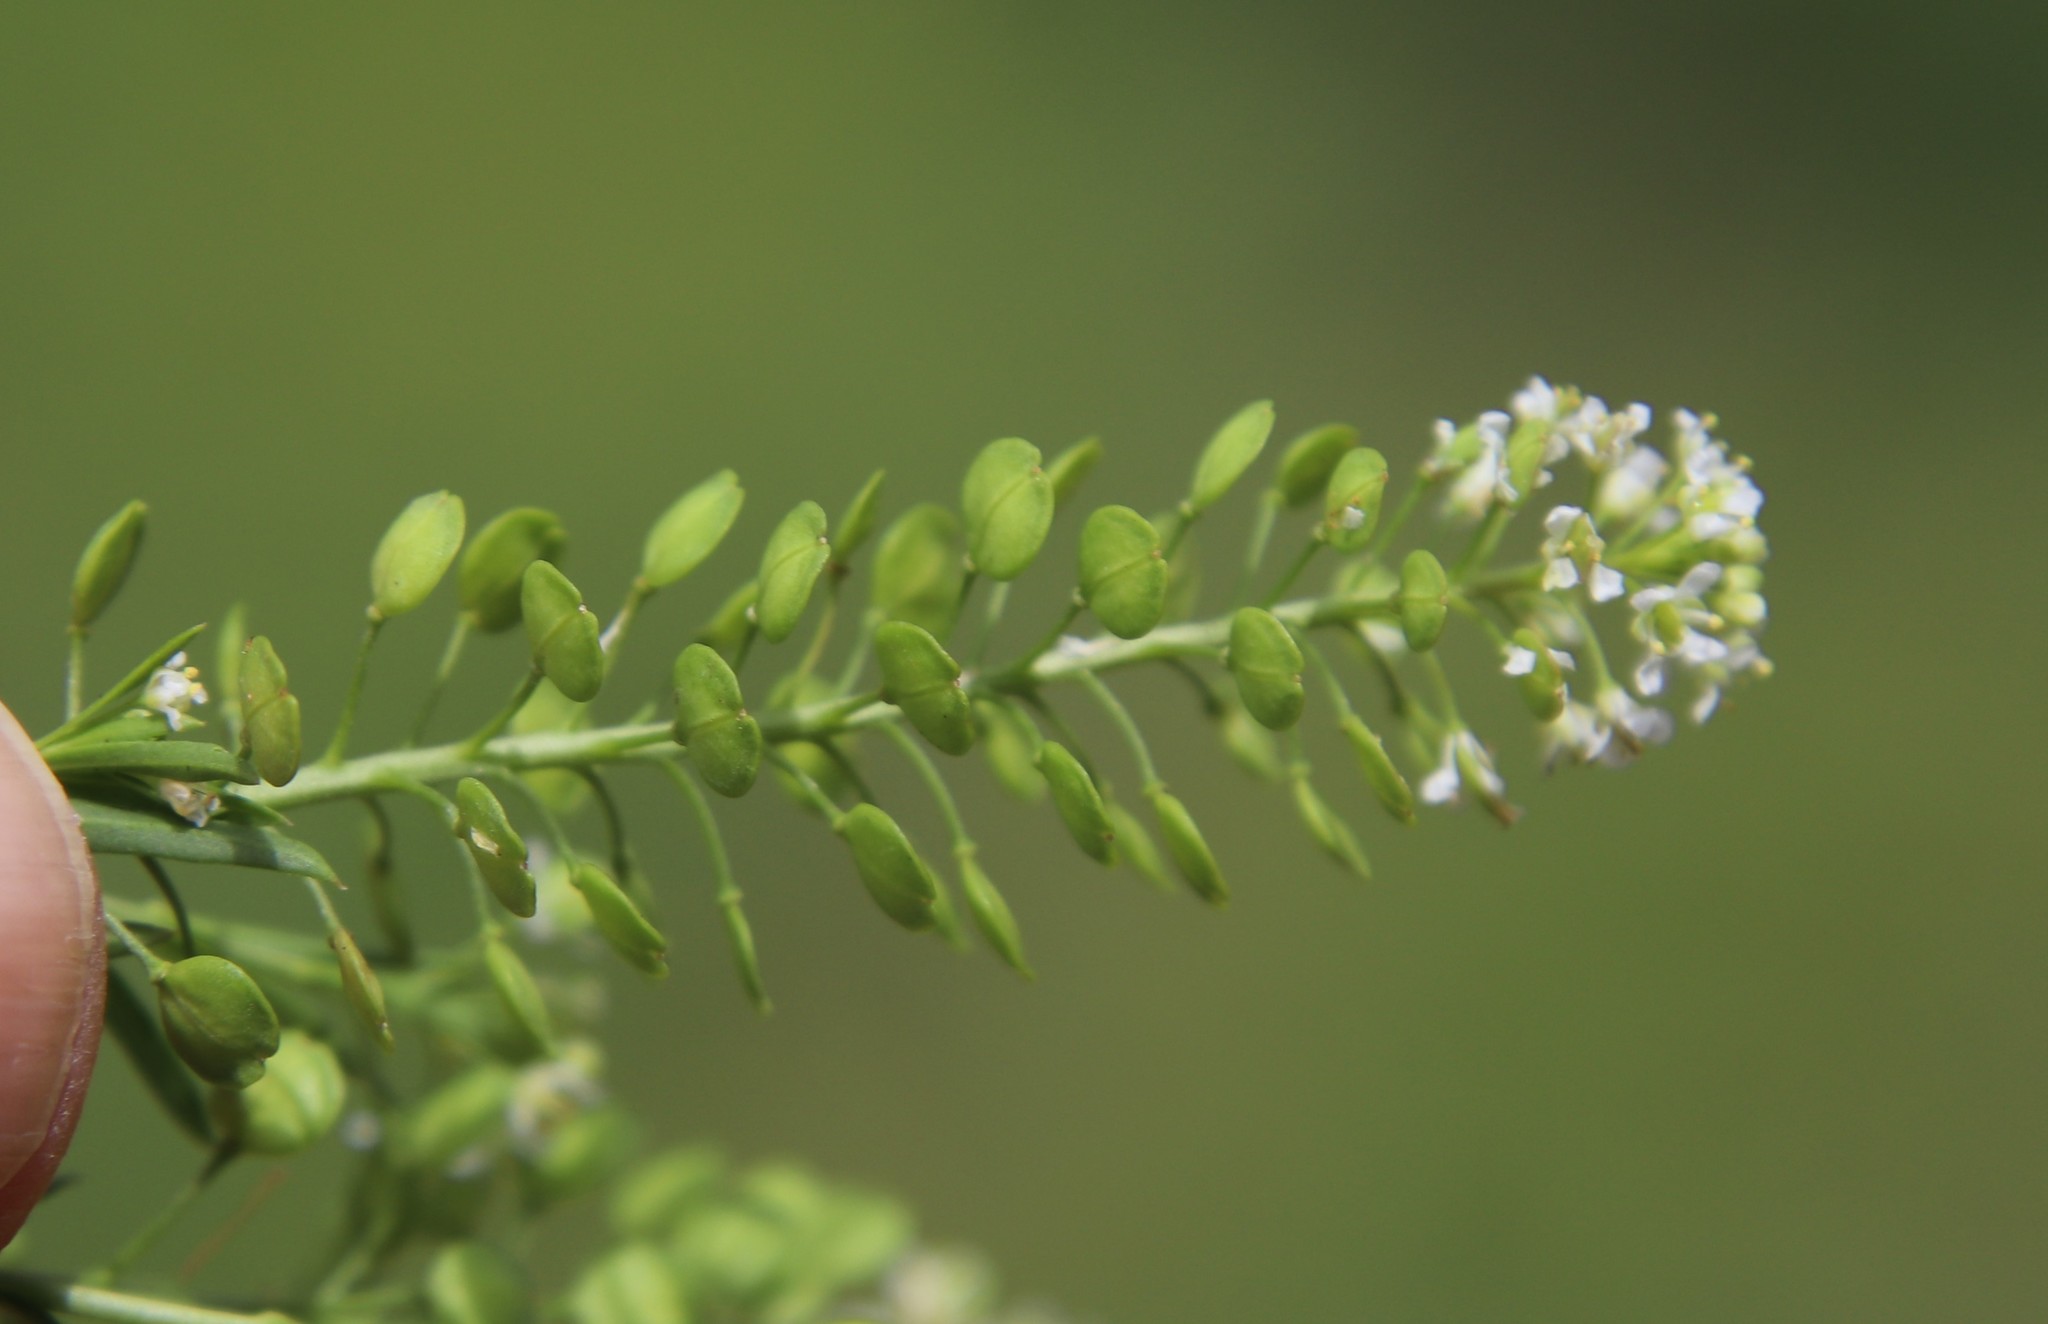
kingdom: Plantae
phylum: Tracheophyta
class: Magnoliopsida
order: Brassicales
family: Brassicaceae
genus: Lepidium
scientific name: Lepidium virginicum
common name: Least pepperwort
